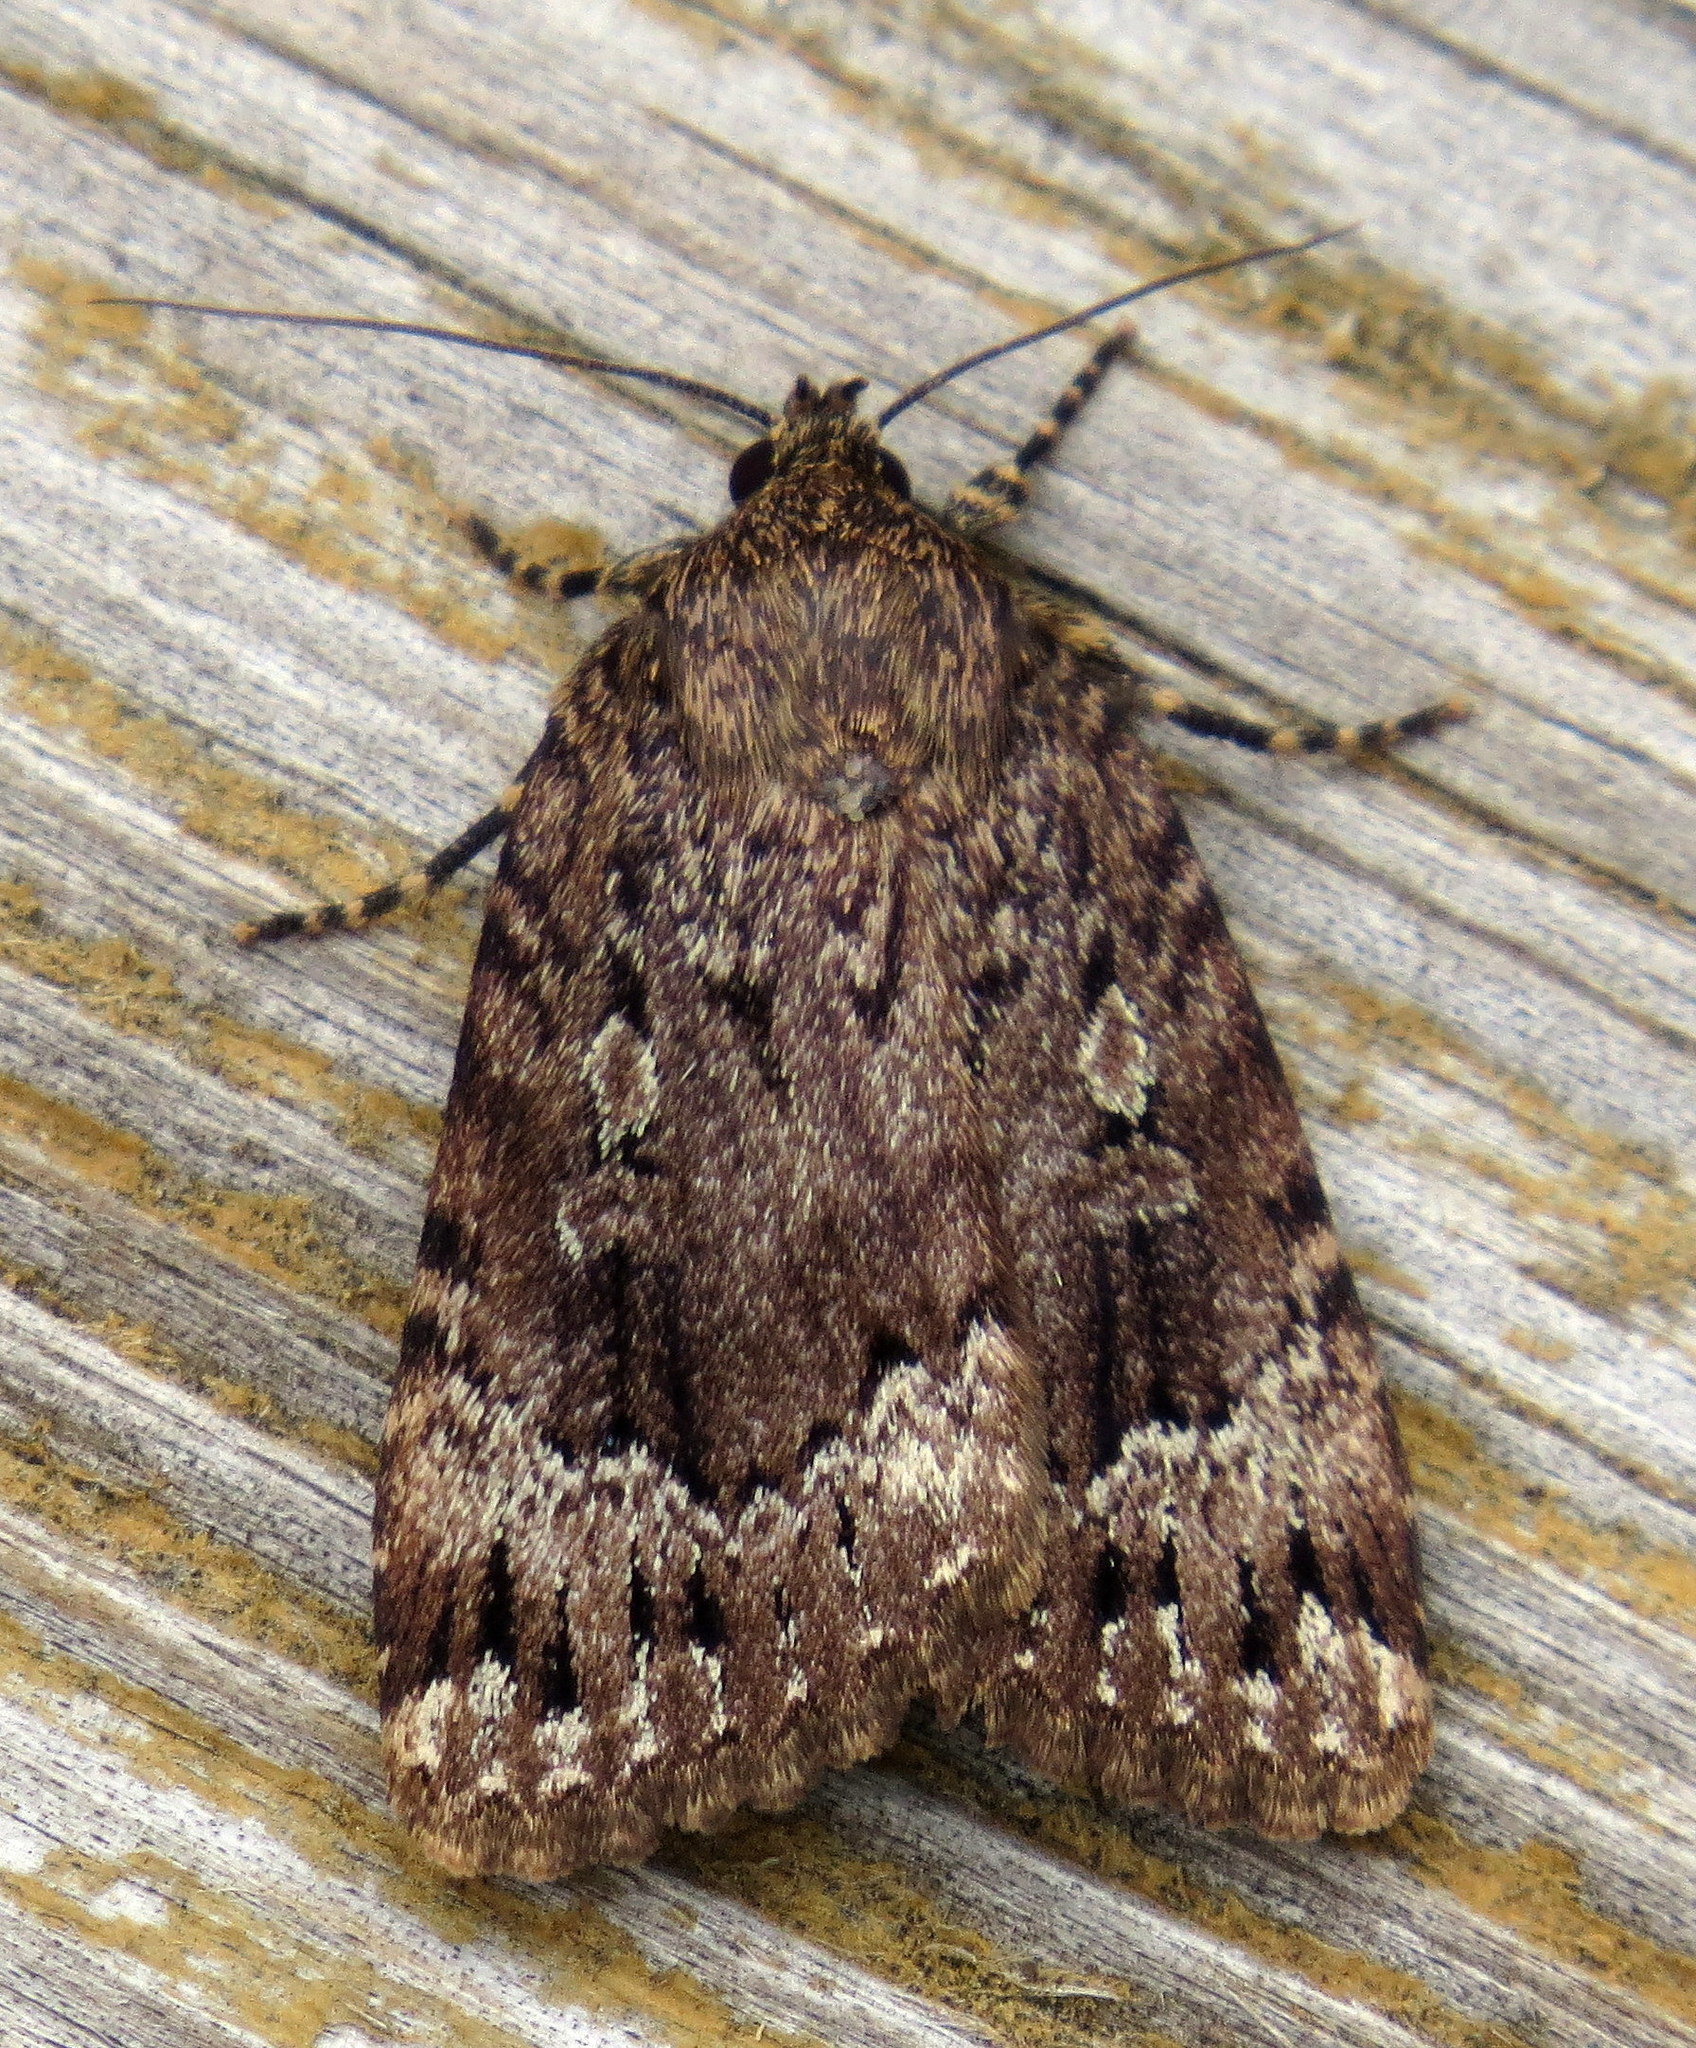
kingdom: Animalia
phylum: Arthropoda
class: Insecta
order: Lepidoptera
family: Noctuidae
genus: Amphipyra
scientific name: Amphipyra pyramidoides
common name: American copper underwing
